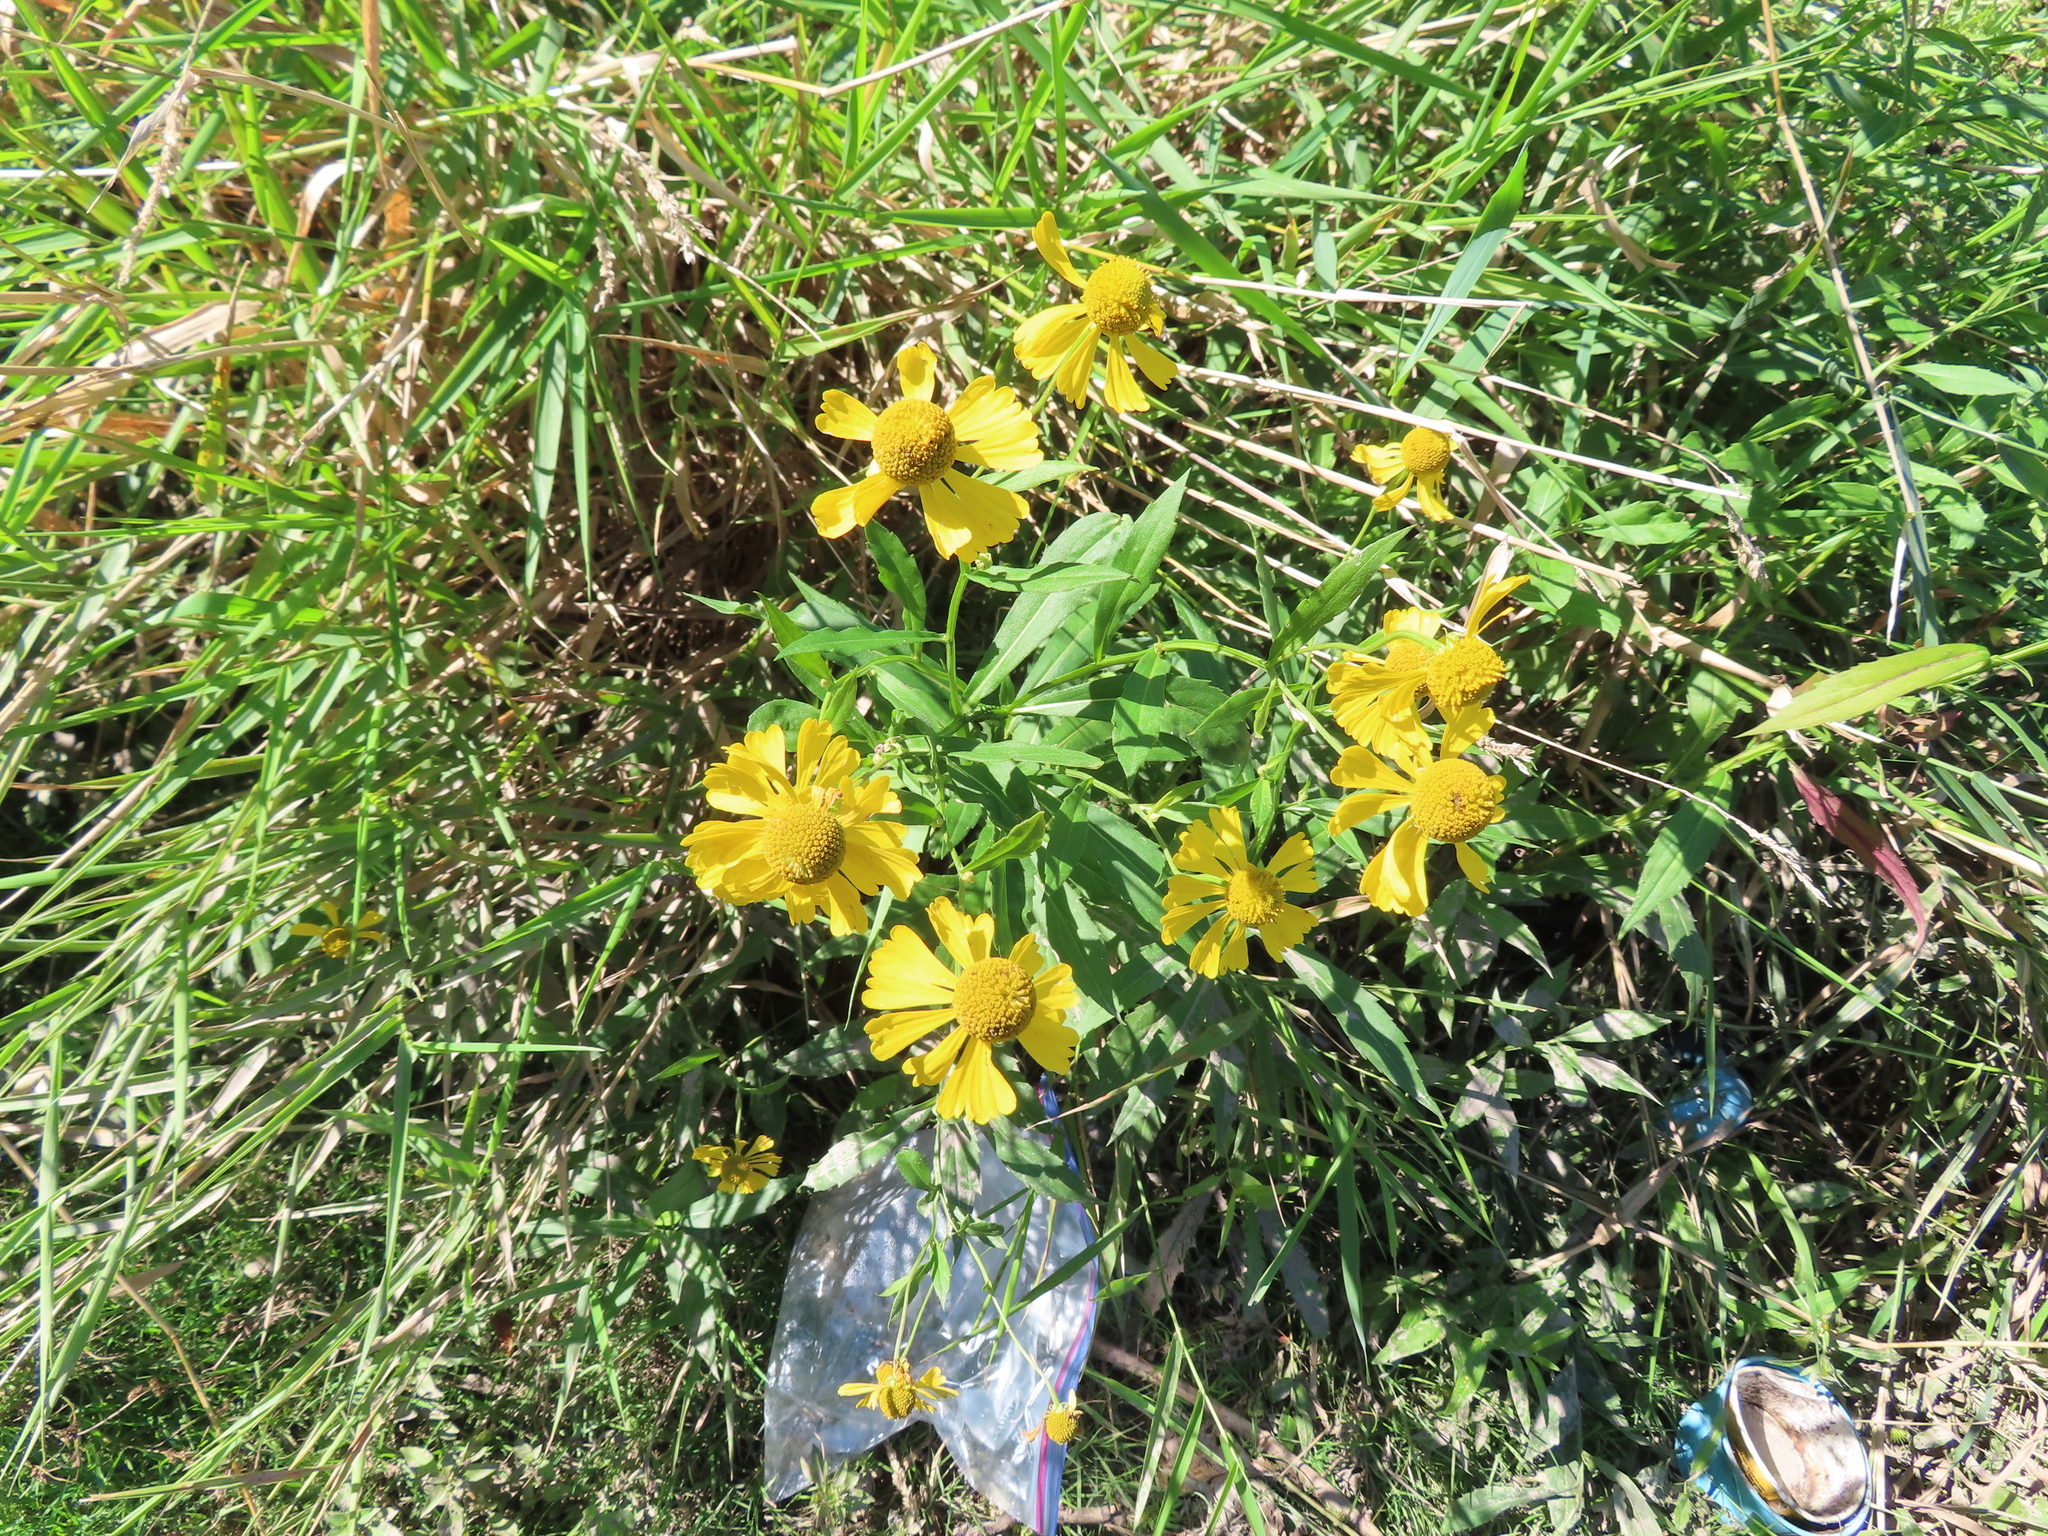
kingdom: Plantae
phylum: Tracheophyta
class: Magnoliopsida
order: Asterales
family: Asteraceae
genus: Helenium
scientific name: Helenium autumnale
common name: Sneezeweed
